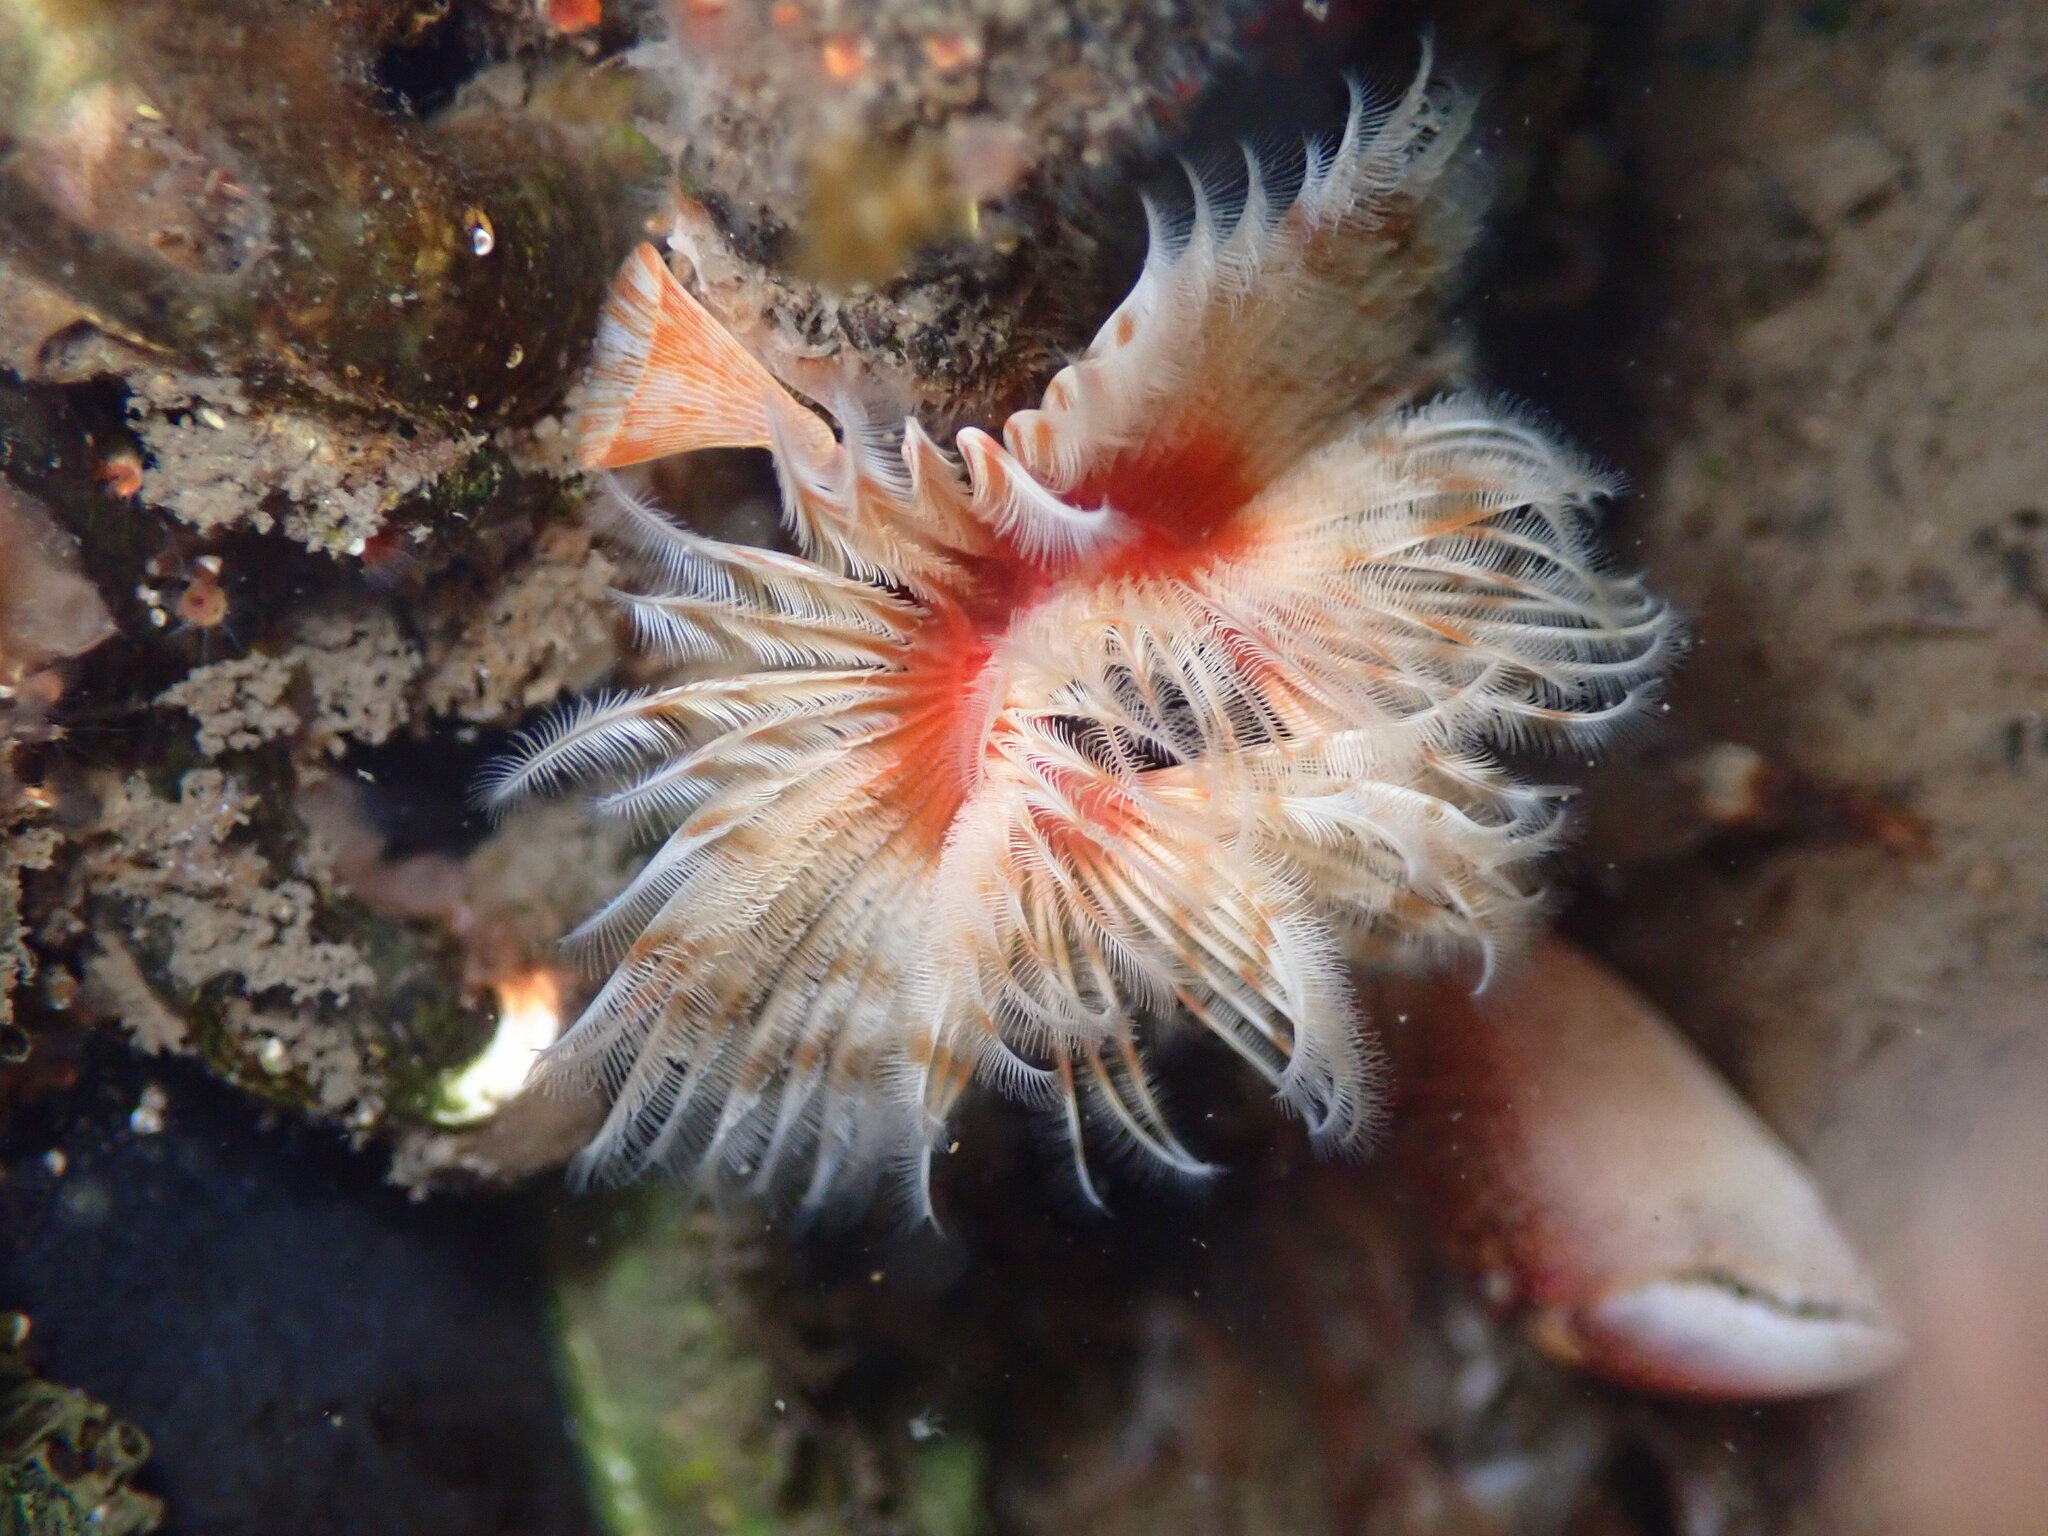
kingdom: Animalia
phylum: Annelida
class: Polychaeta
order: Sabellida
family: Serpulidae
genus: Serpula
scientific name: Serpula columbiana
